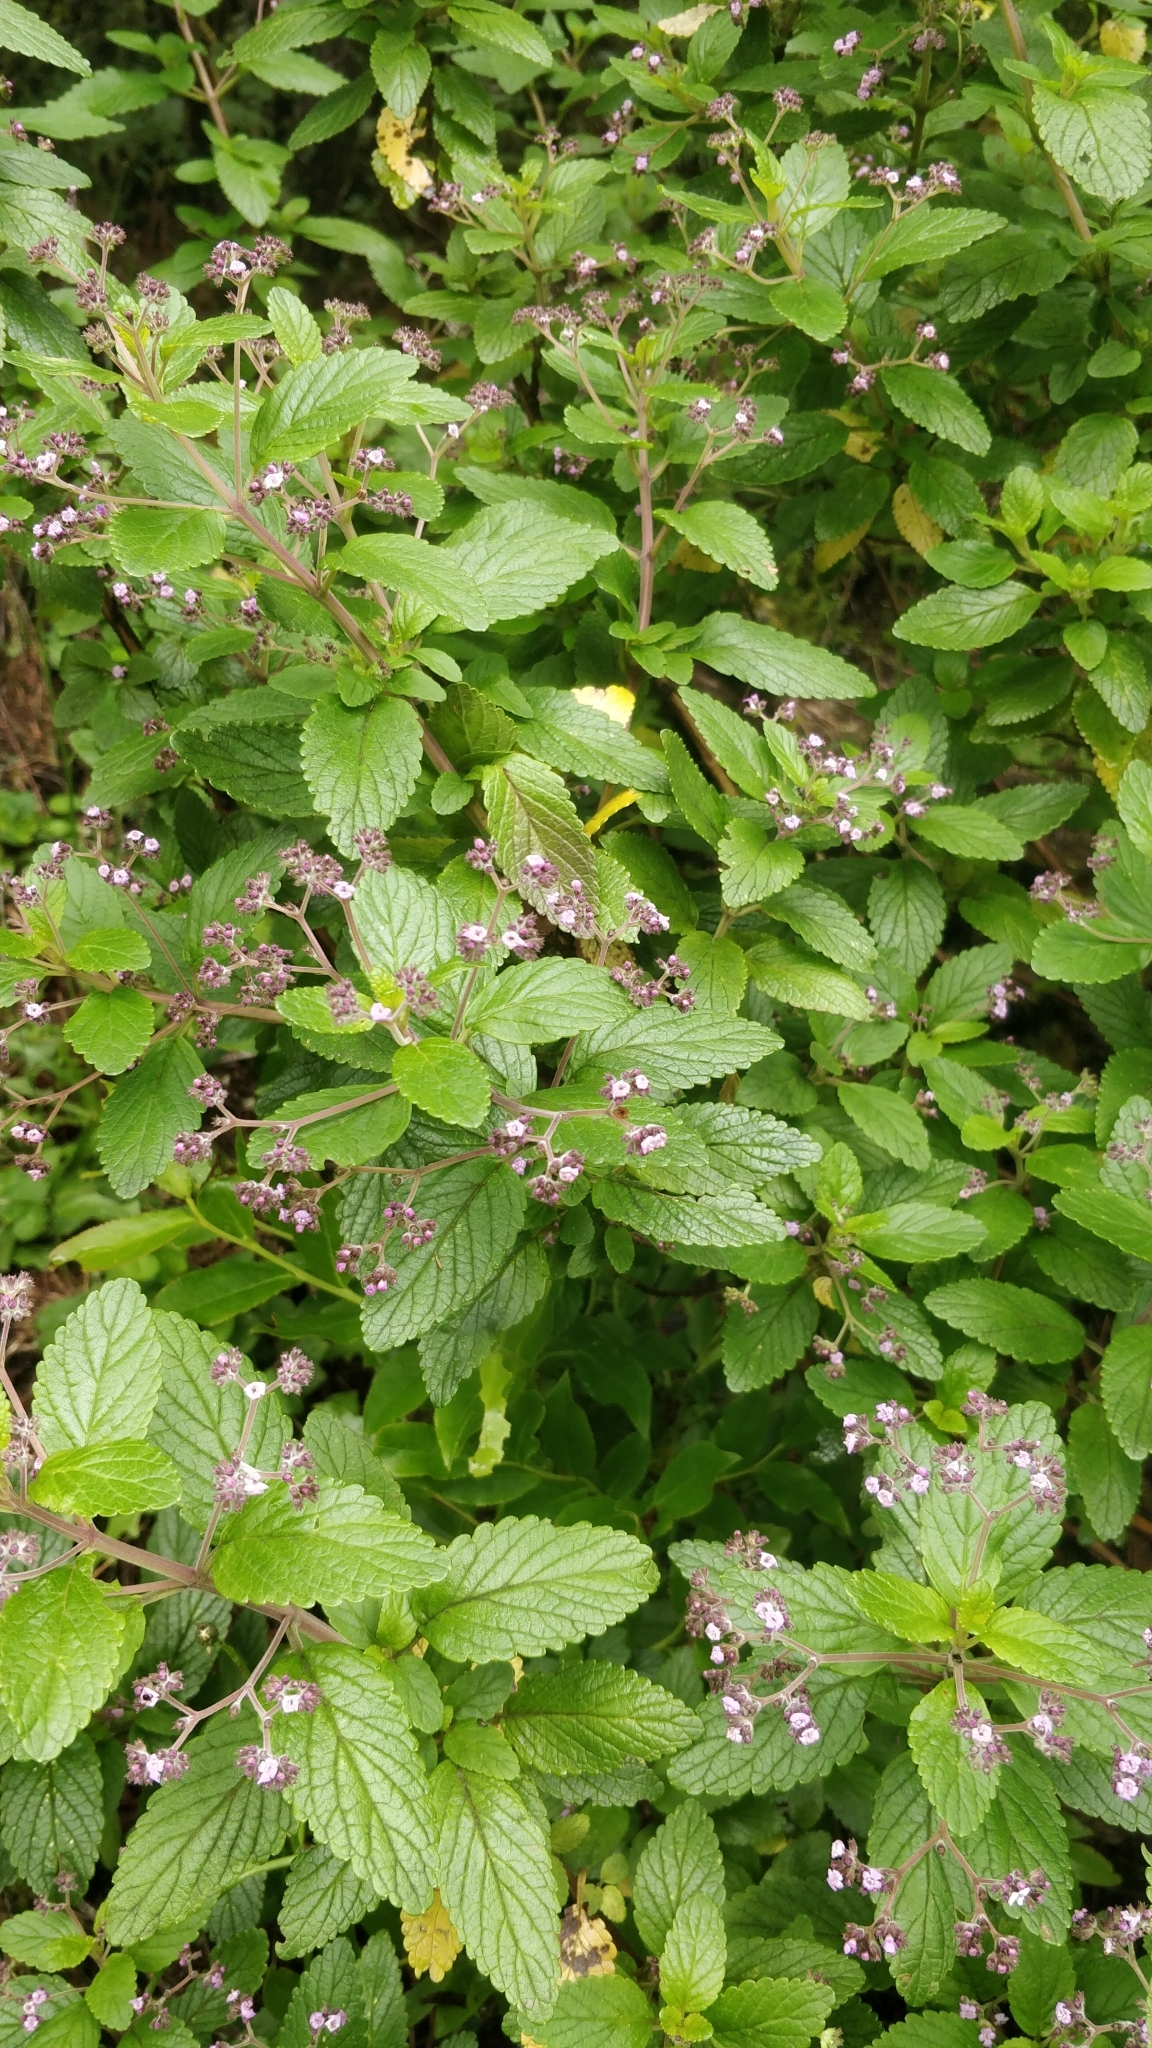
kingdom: Plantae
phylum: Tracheophyta
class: Magnoliopsida
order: Lamiales
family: Lamiaceae
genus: Bystropogon
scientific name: Bystropogon punctatus
